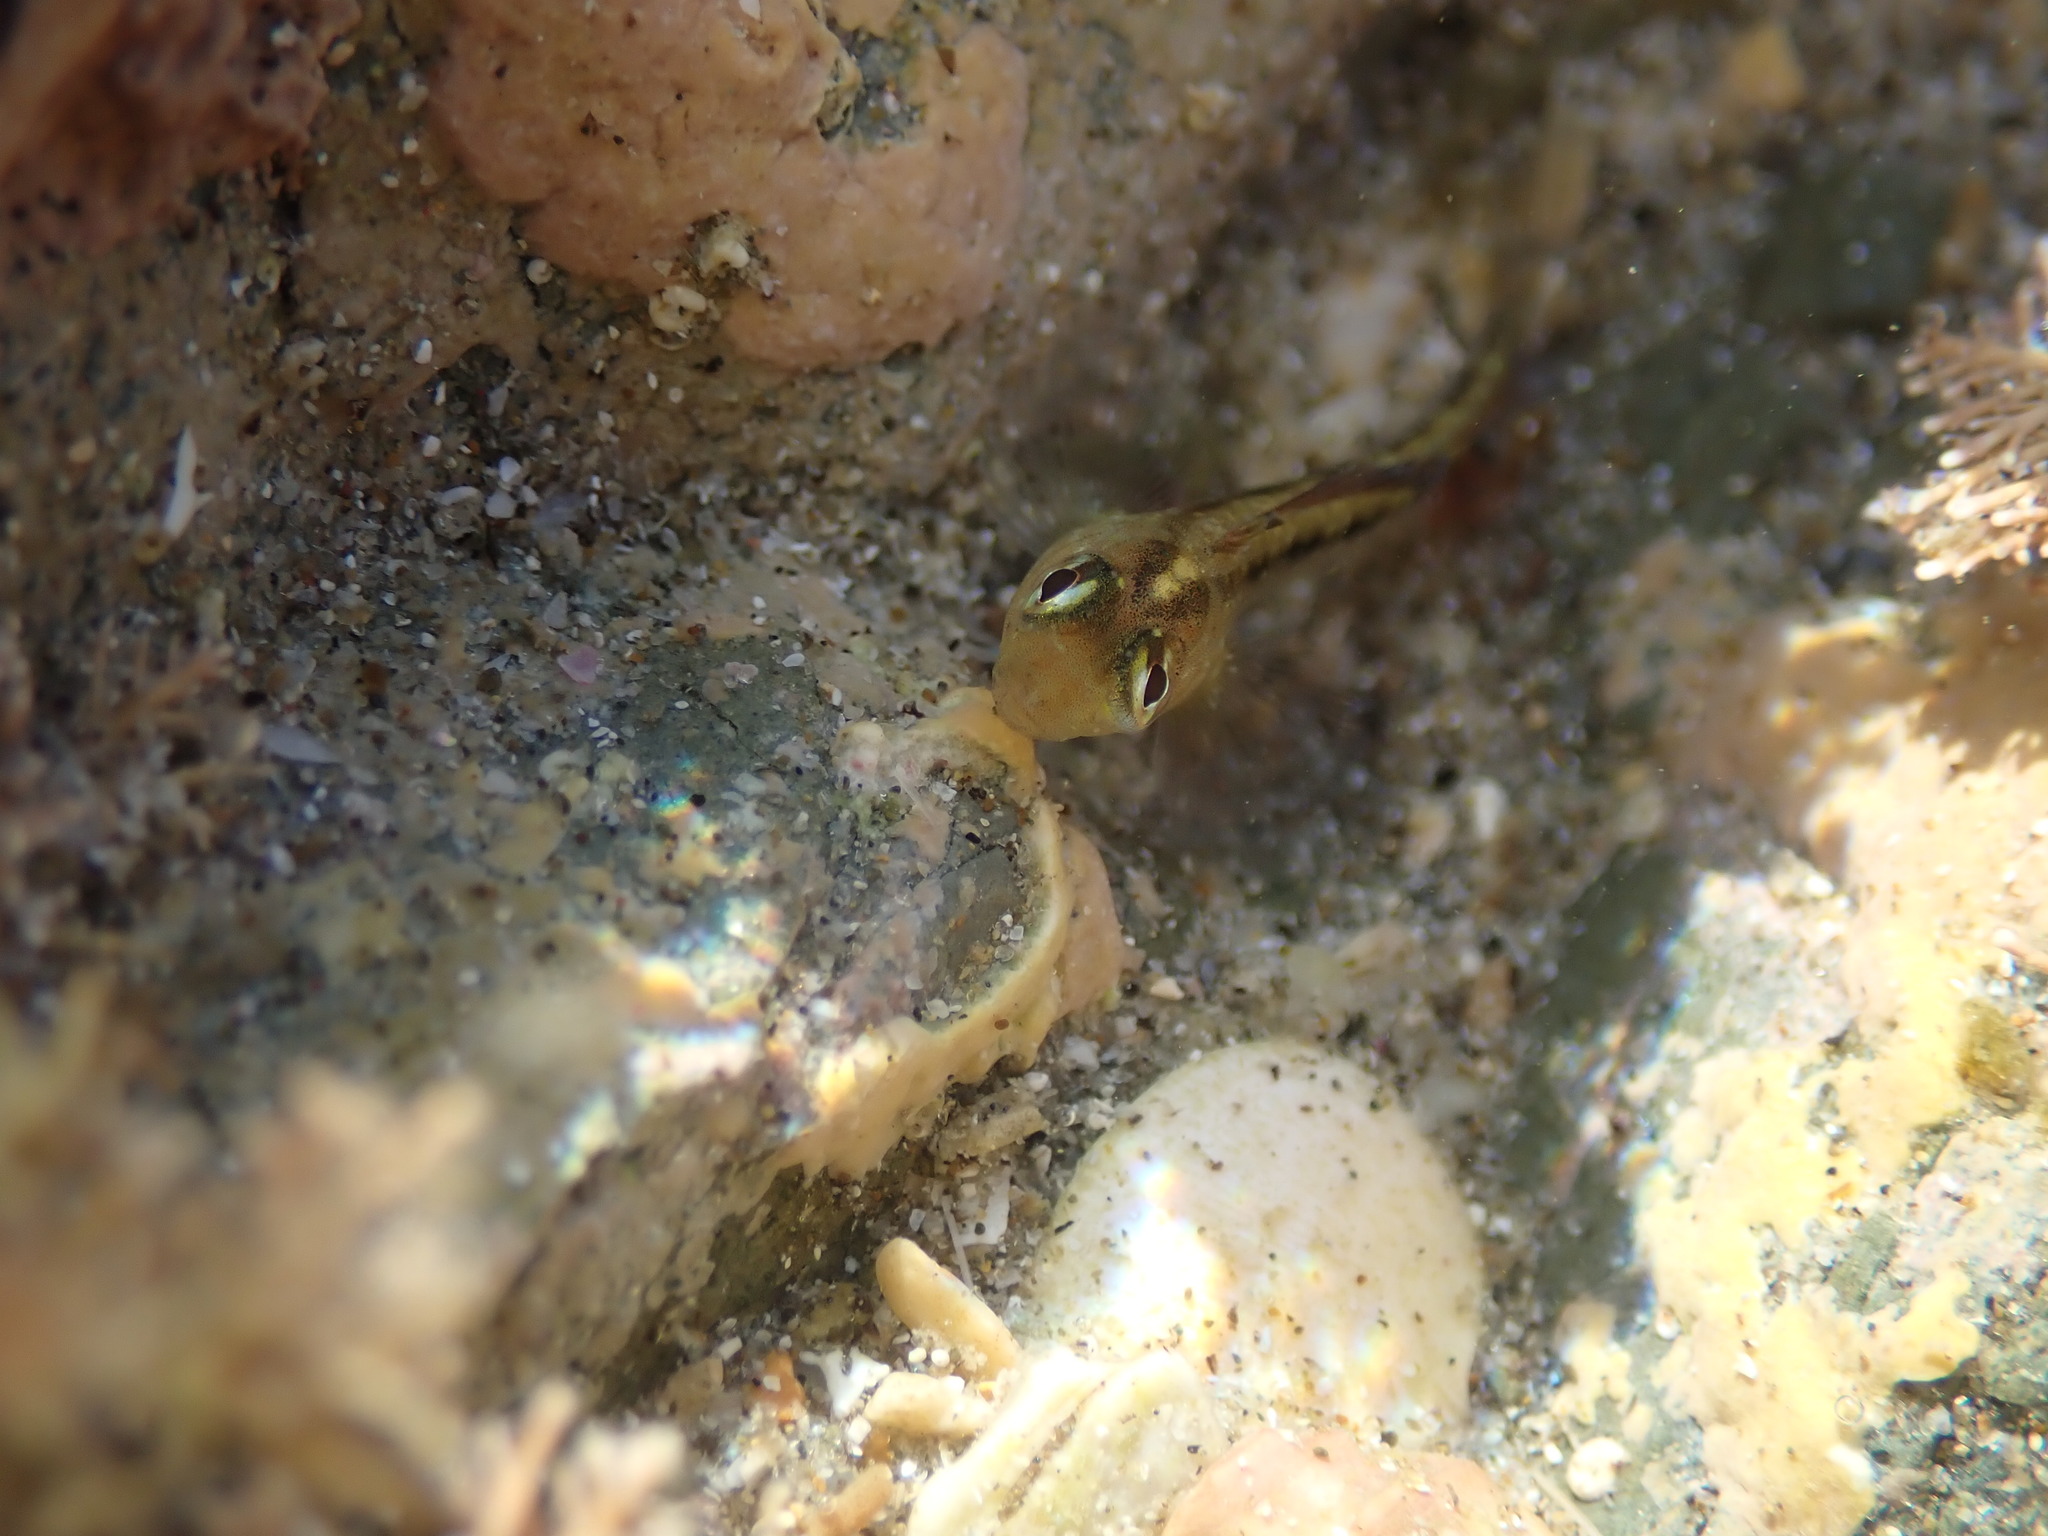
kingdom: Animalia
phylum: Chordata
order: Perciformes
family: Tripterygiidae
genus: Forsterygion
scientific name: Forsterygion lapillum
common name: Common triplefin
